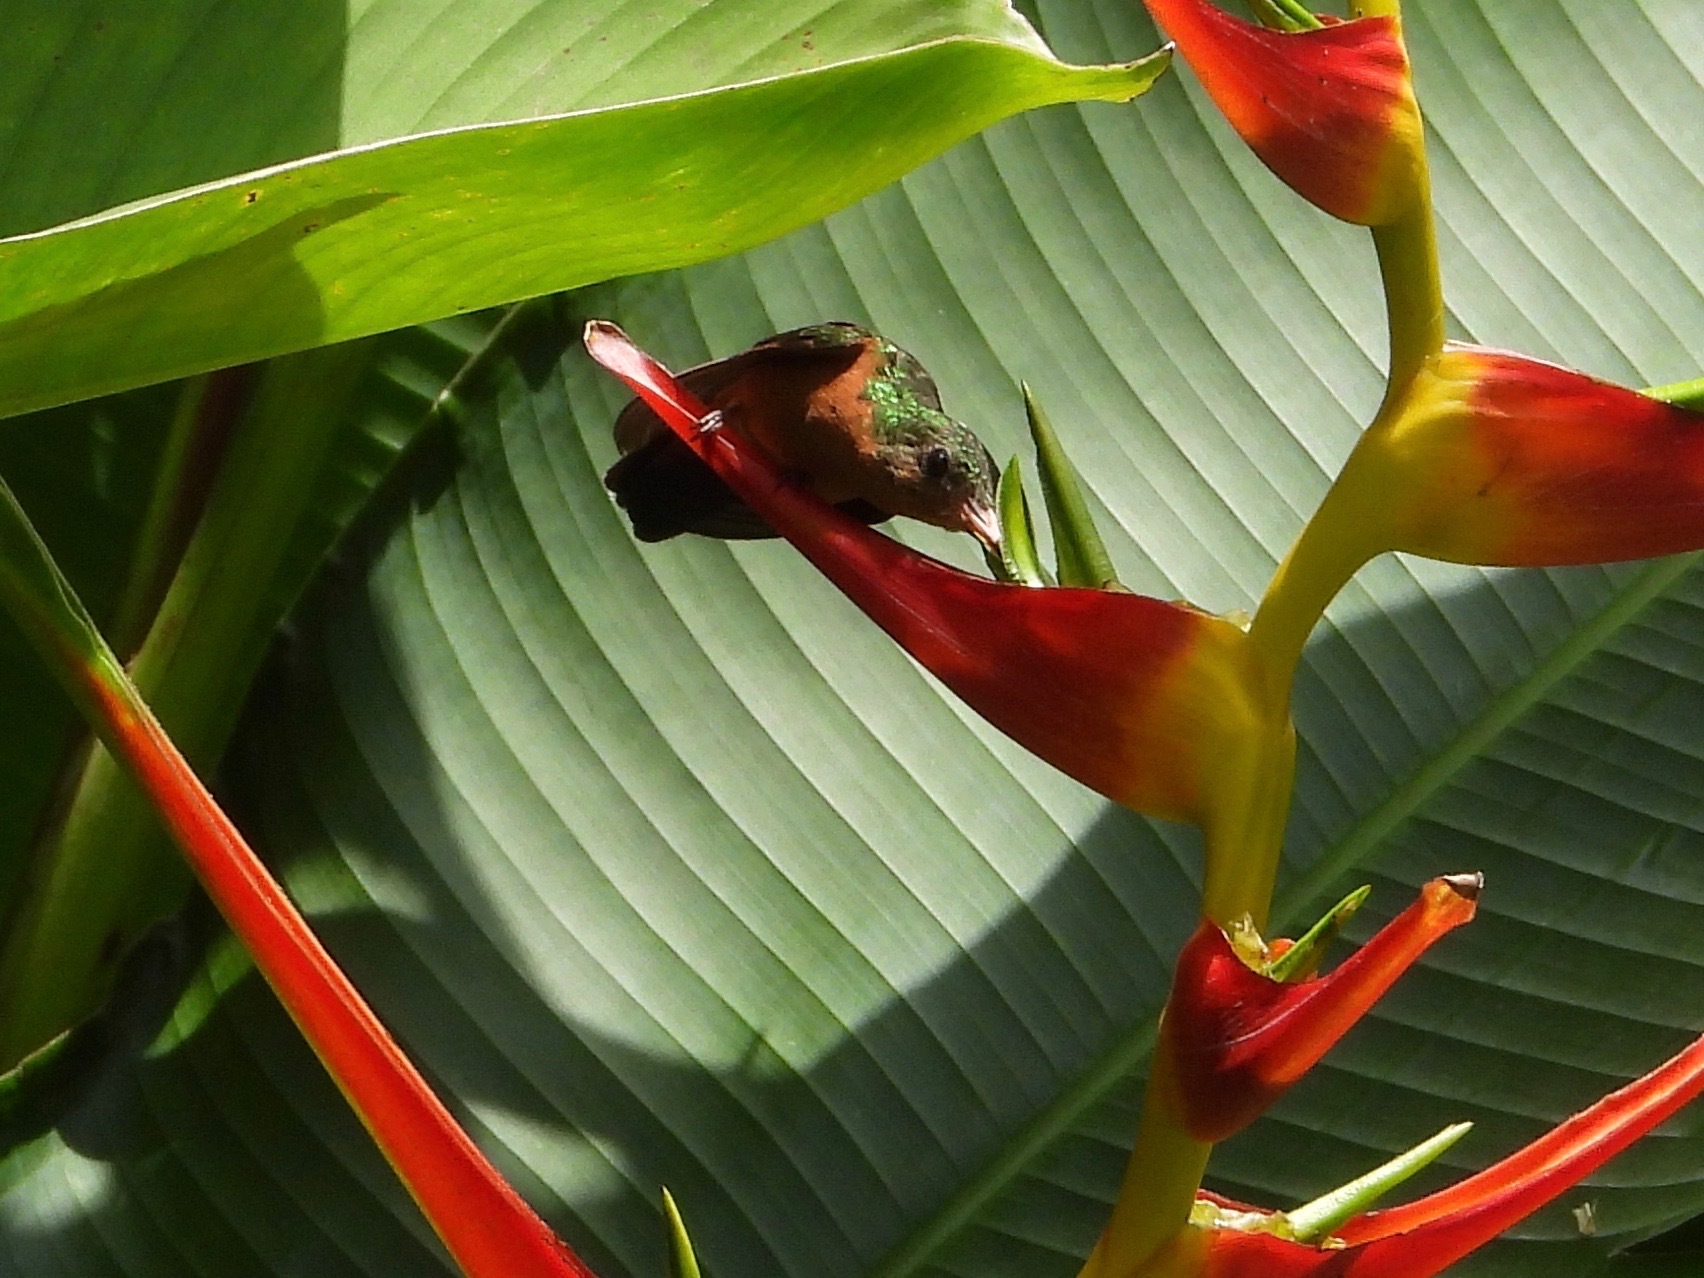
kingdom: Animalia
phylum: Chordata
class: Aves
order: Apodiformes
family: Trochilidae
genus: Amazilia
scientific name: Amazilia rutila
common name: Cinnamon hummingbird
